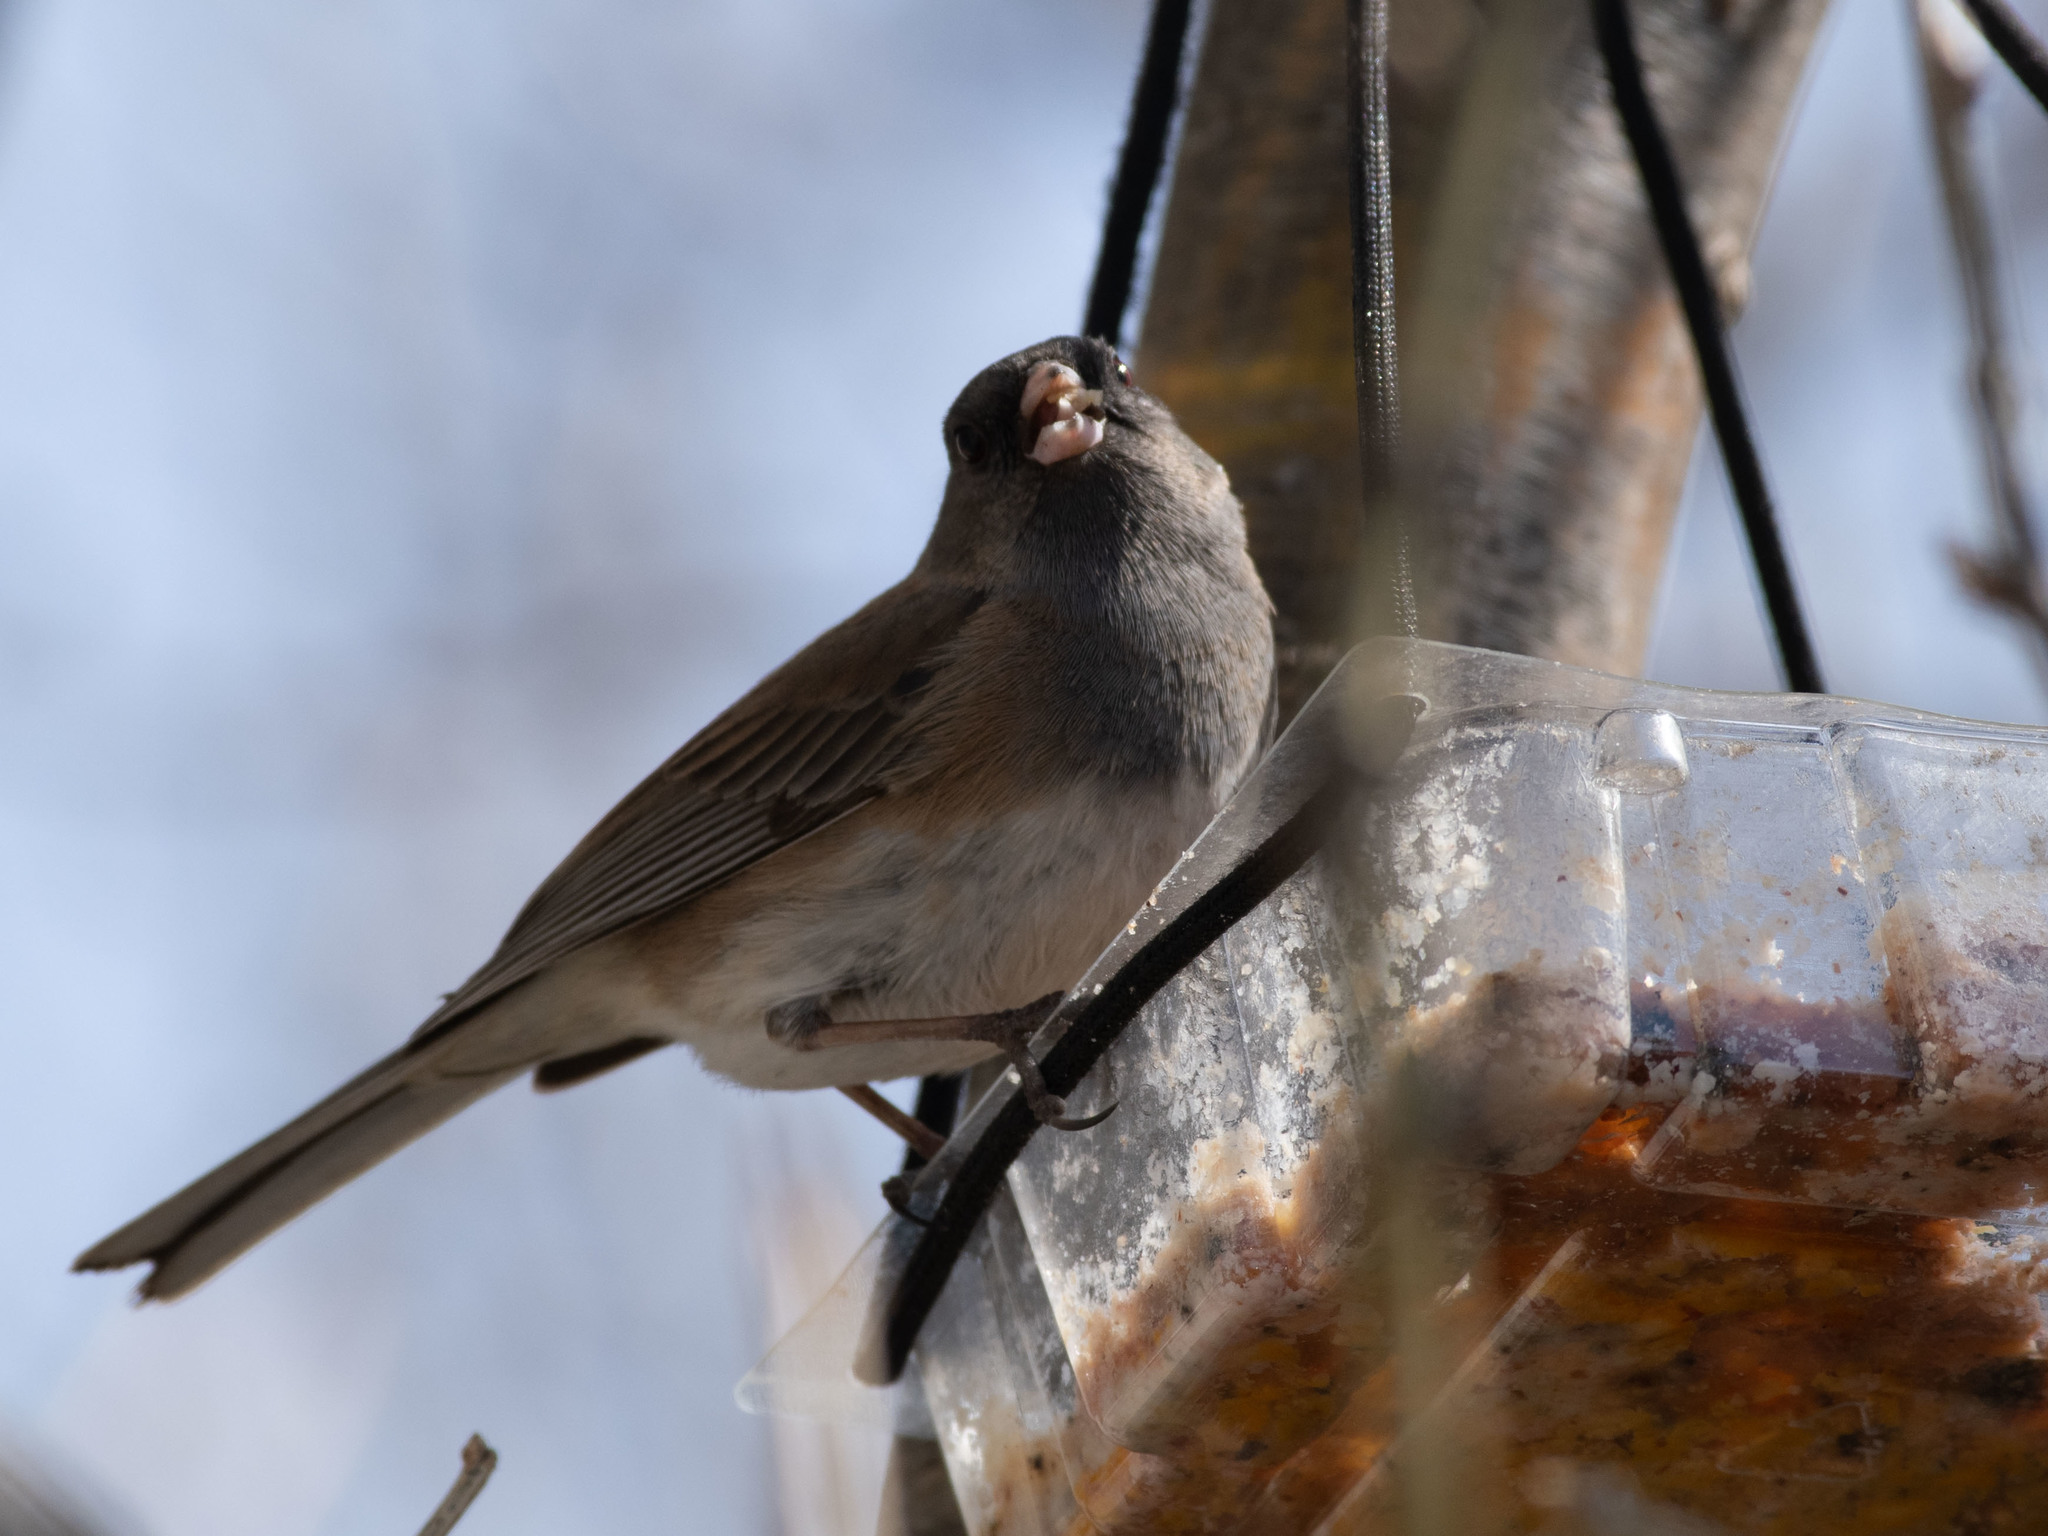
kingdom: Animalia
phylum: Chordata
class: Aves
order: Passeriformes
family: Passerellidae
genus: Junco
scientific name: Junco hyemalis
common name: Dark-eyed junco
